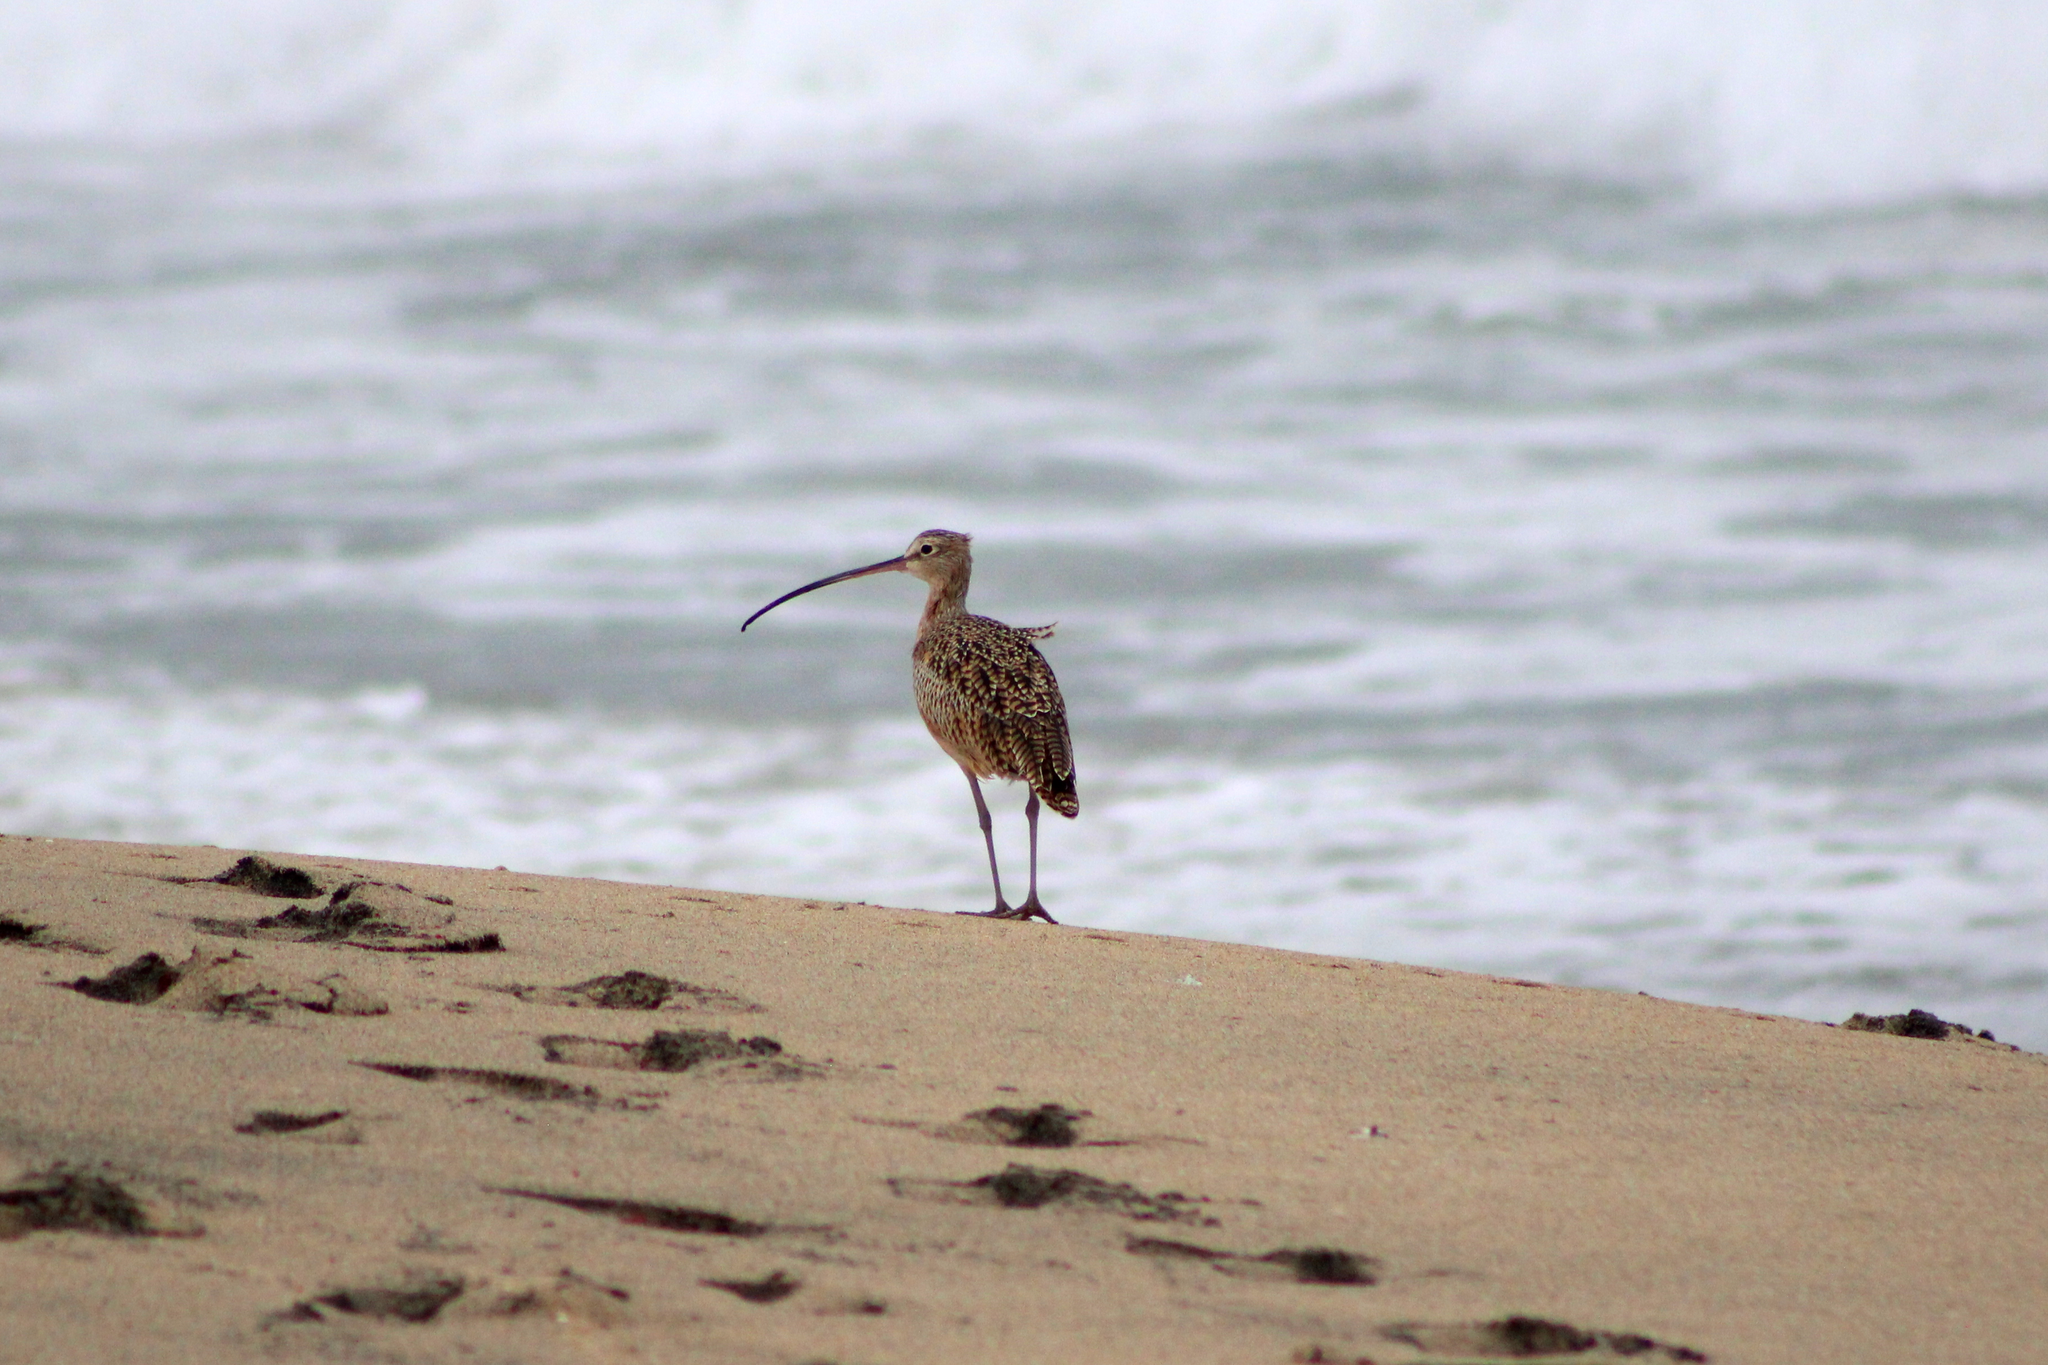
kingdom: Animalia
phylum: Chordata
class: Aves
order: Charadriiformes
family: Scolopacidae
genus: Numenius
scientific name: Numenius americanus
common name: Long-billed curlew
